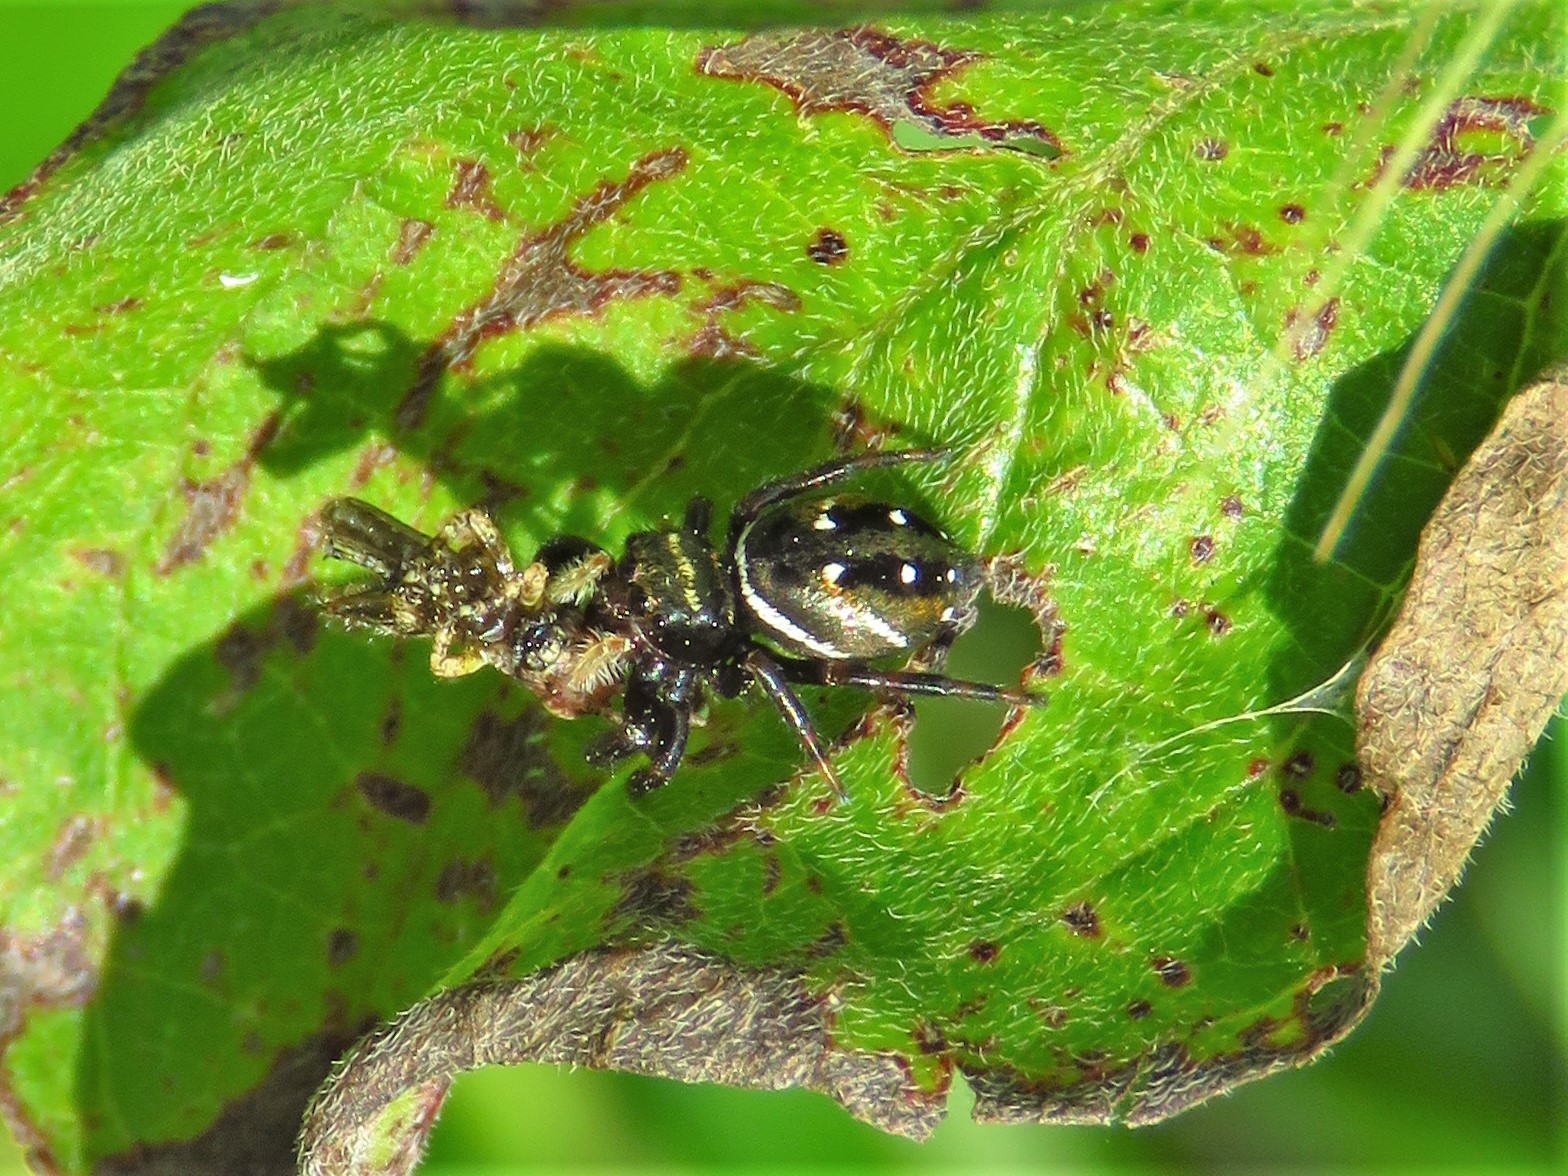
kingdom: Animalia
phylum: Arthropoda
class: Arachnida
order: Araneae
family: Salticidae
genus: Phidippus
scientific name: Phidippus clarus
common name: Brilliant jumping spider
